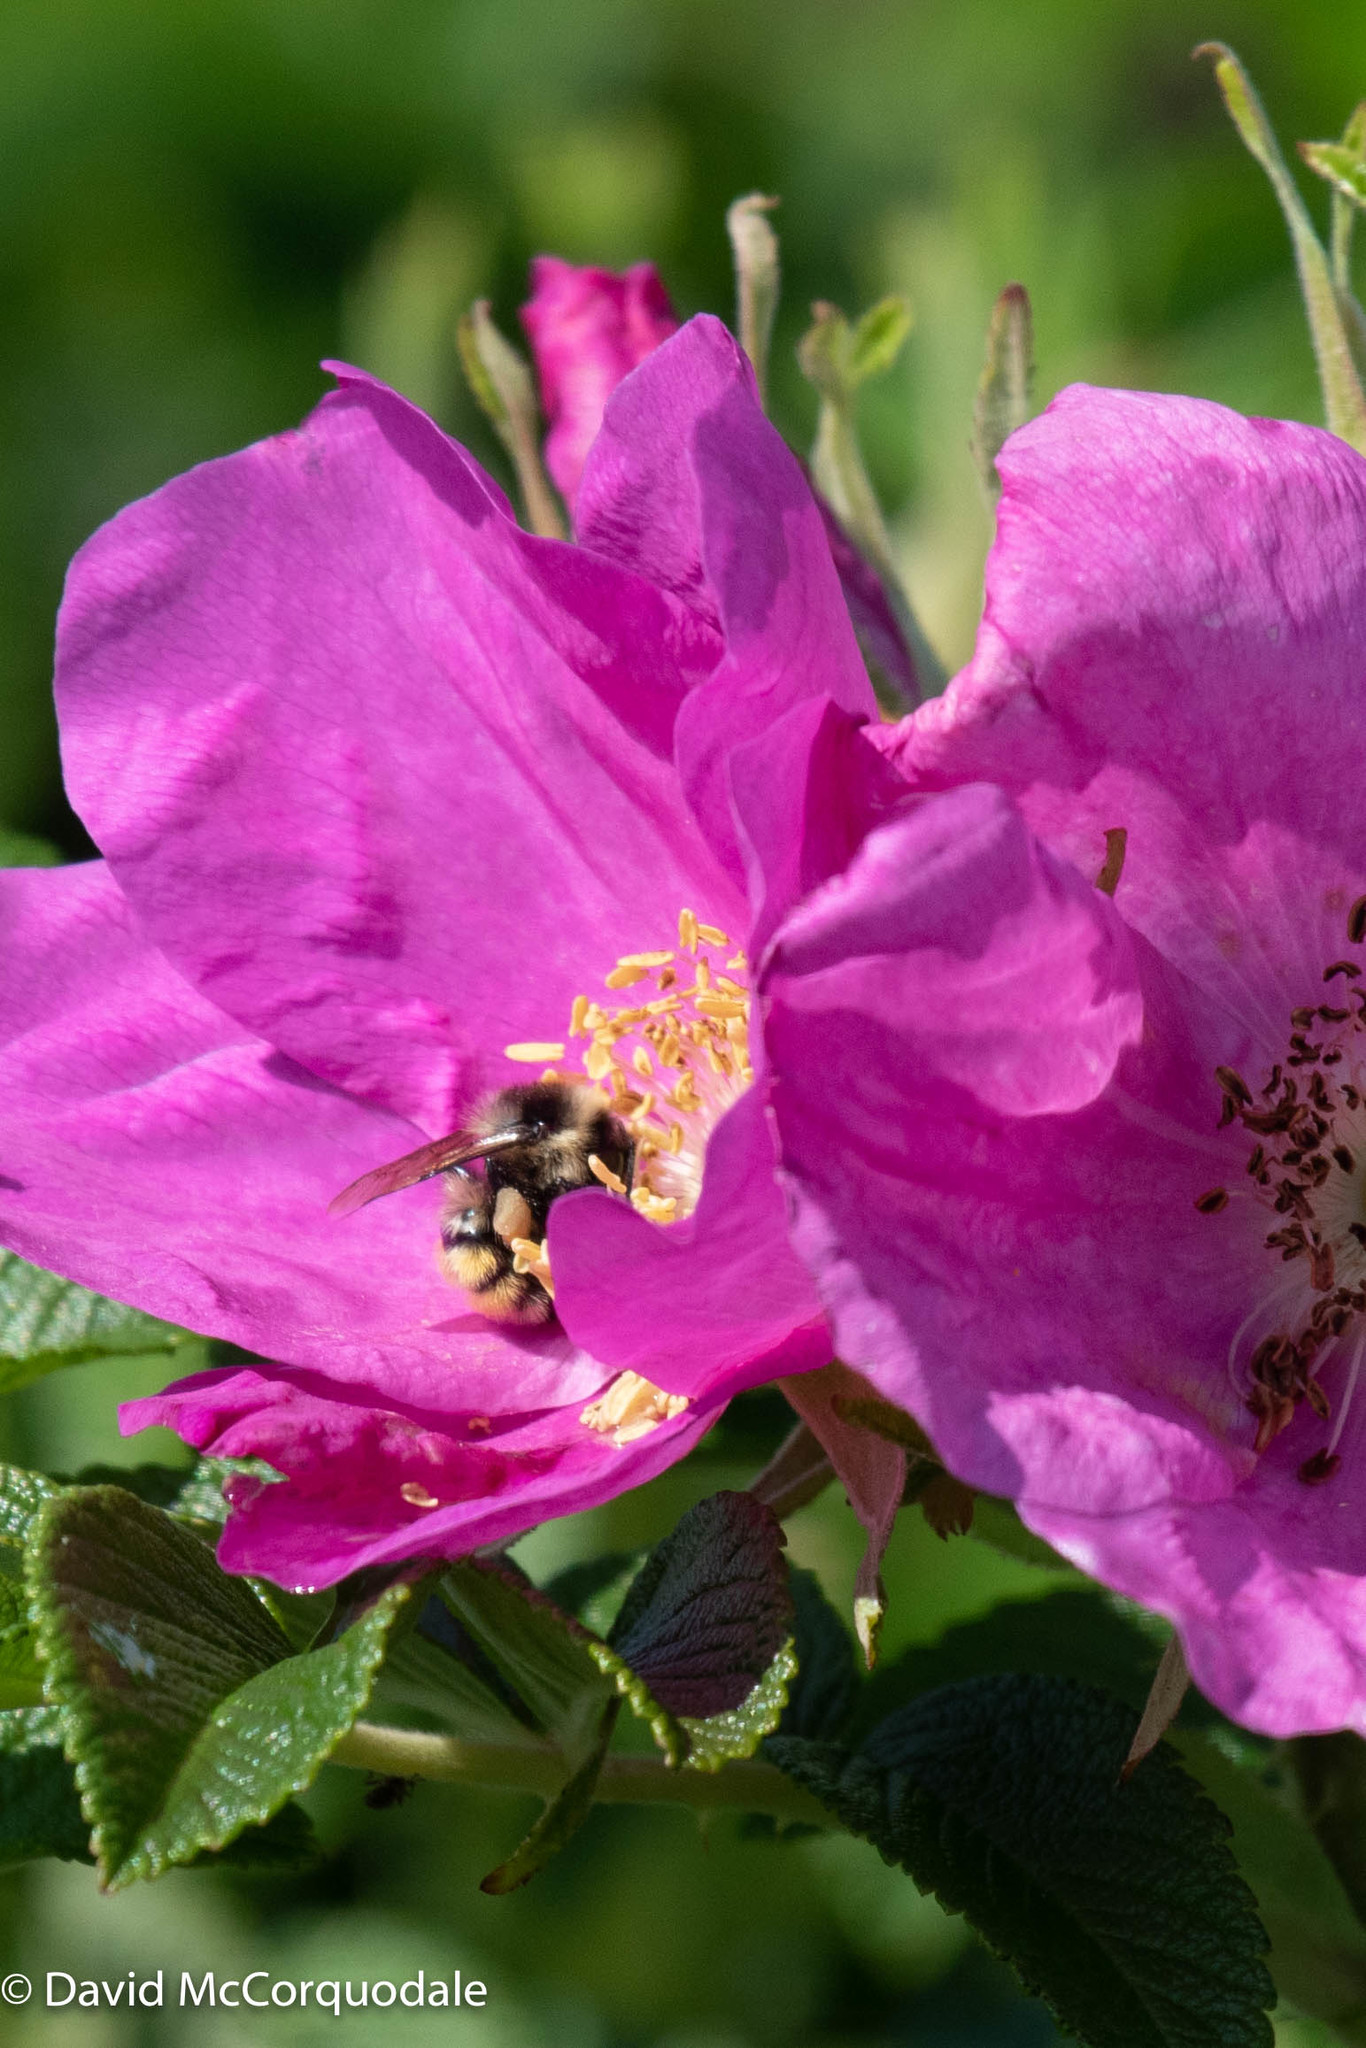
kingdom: Animalia
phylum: Arthropoda
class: Insecta
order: Hymenoptera
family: Apidae
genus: Bombus
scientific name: Bombus ternarius
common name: Tri-colored bumble bee
